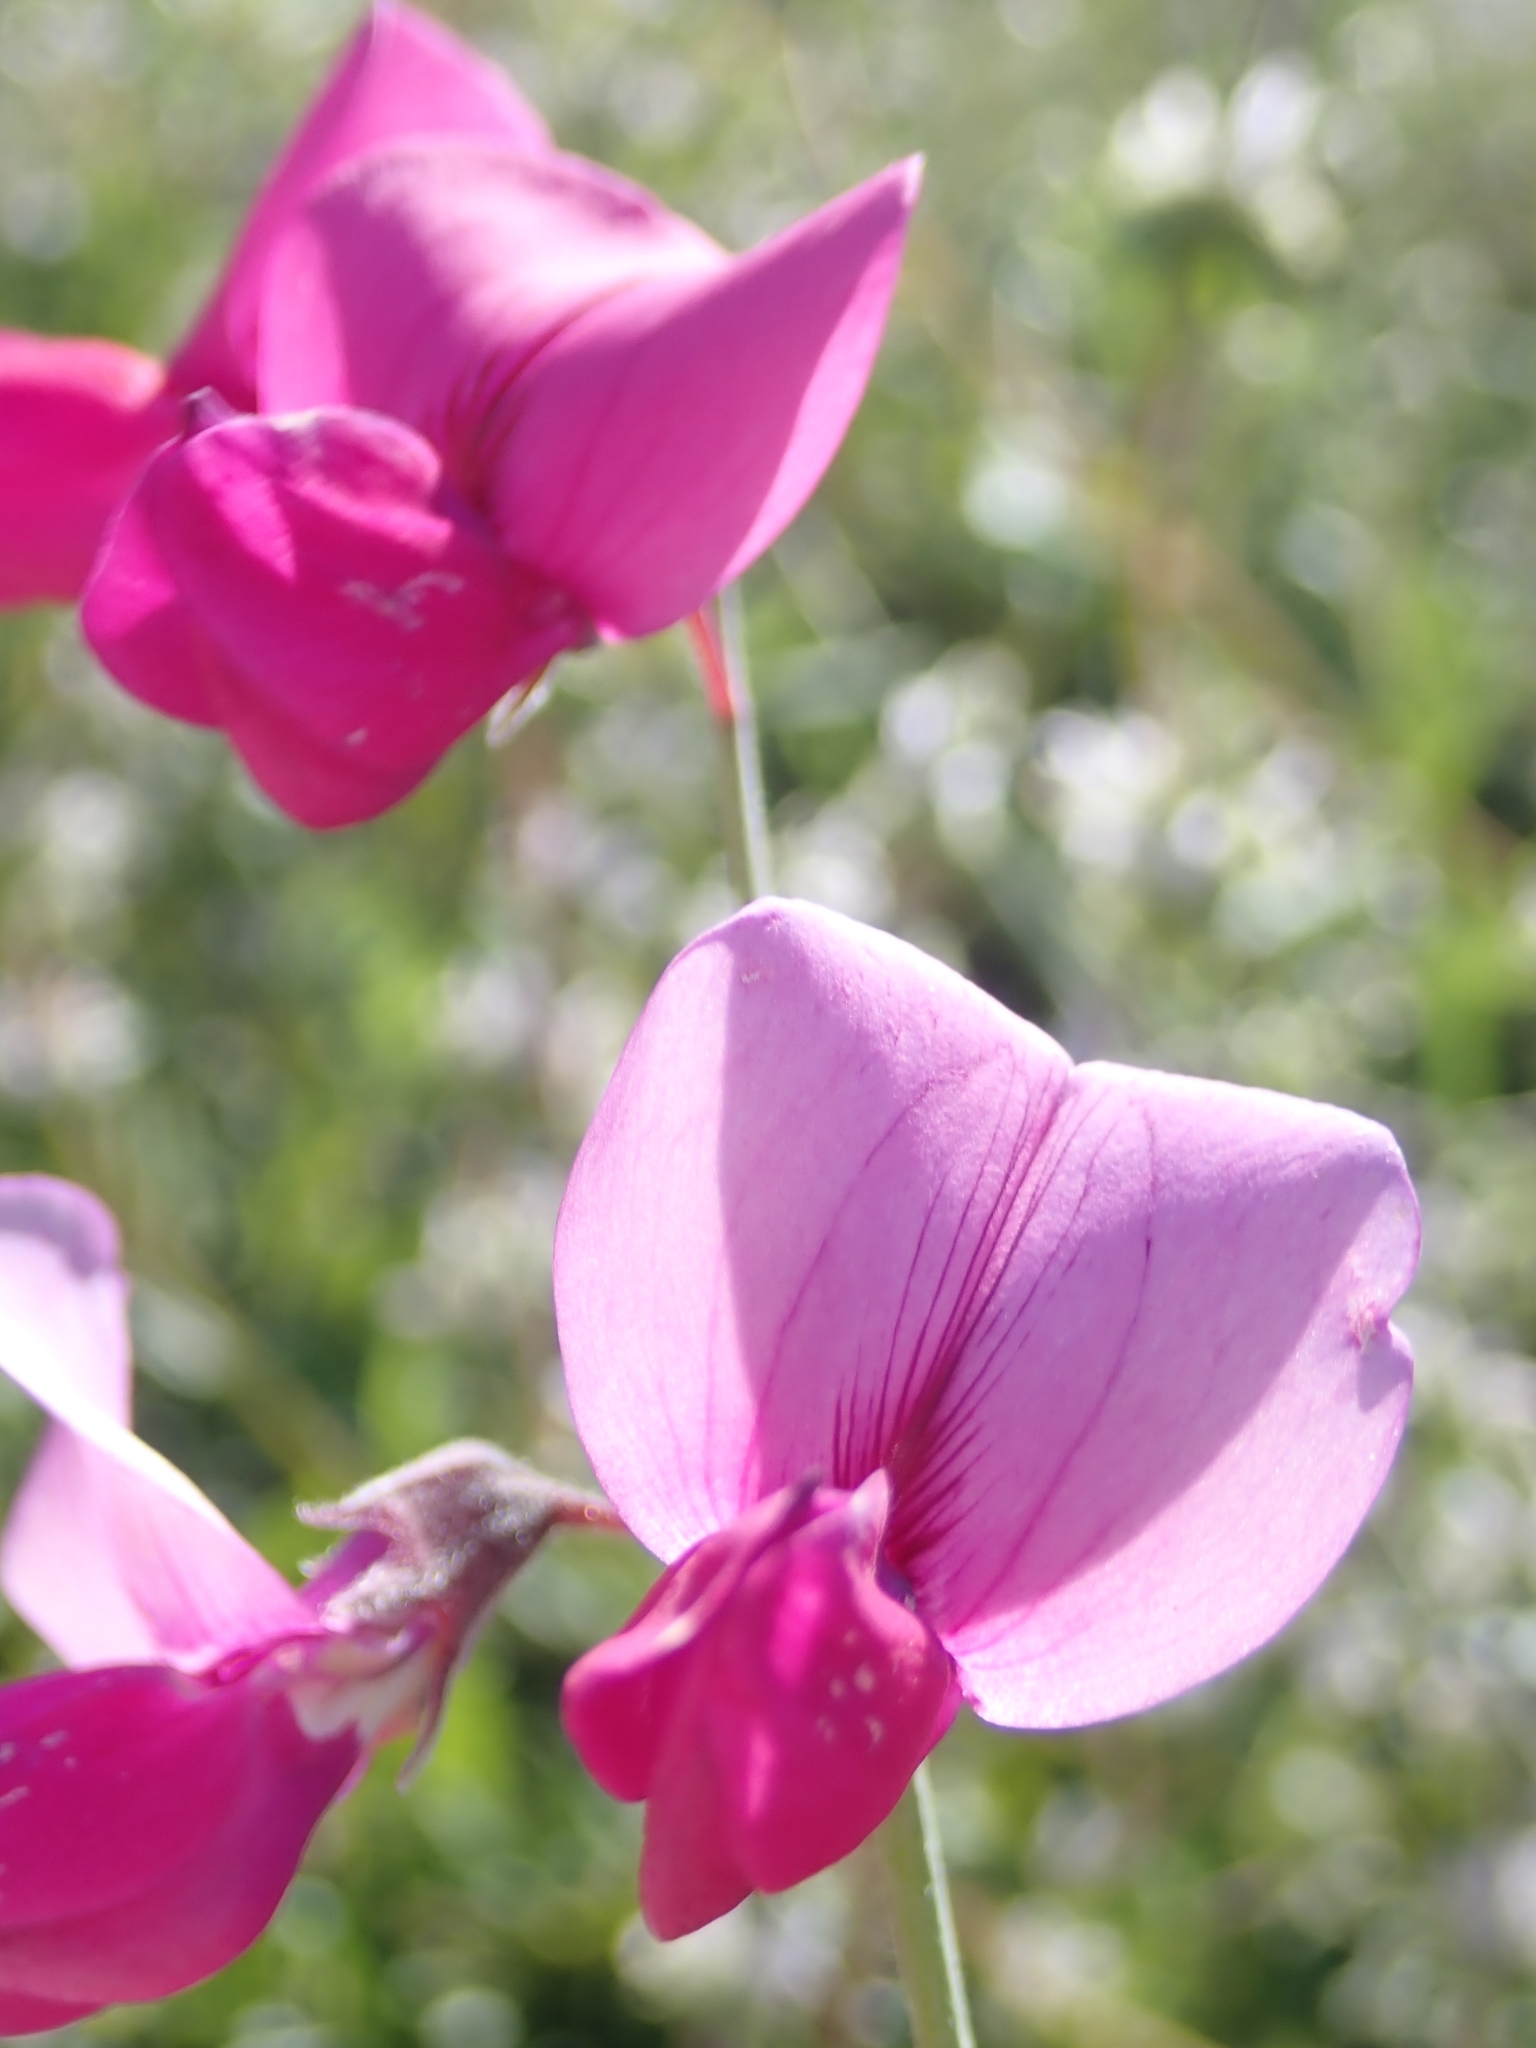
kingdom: Plantae
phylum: Tracheophyta
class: Magnoliopsida
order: Fabales
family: Fabaceae
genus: Lathyrus
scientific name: Lathyrus vestitus
